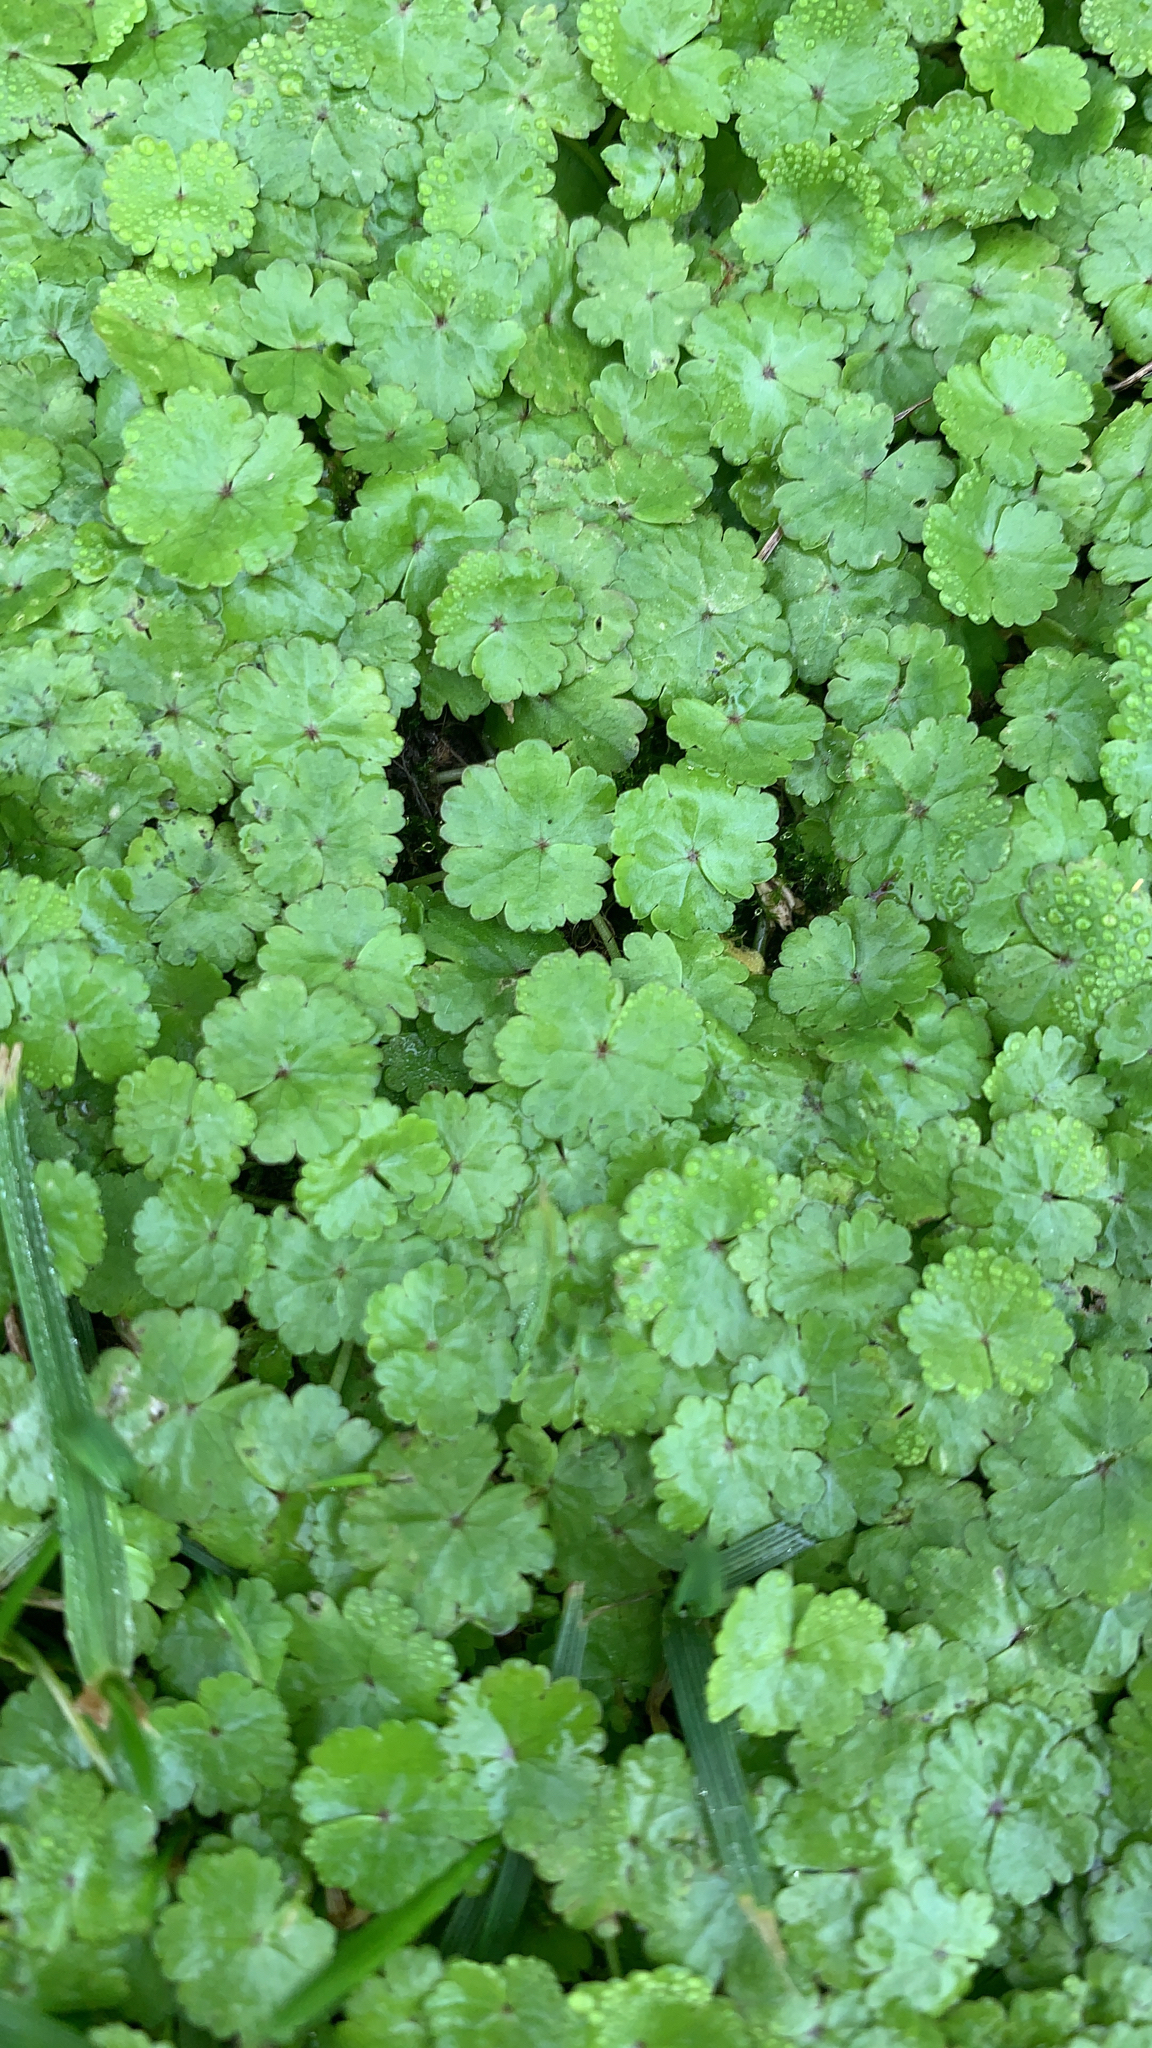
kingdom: Plantae
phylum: Tracheophyta
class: Magnoliopsida
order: Apiales
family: Araliaceae
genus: Hydrocotyle
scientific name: Hydrocotyle sibthorpioides
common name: Lawn marshpennywort
